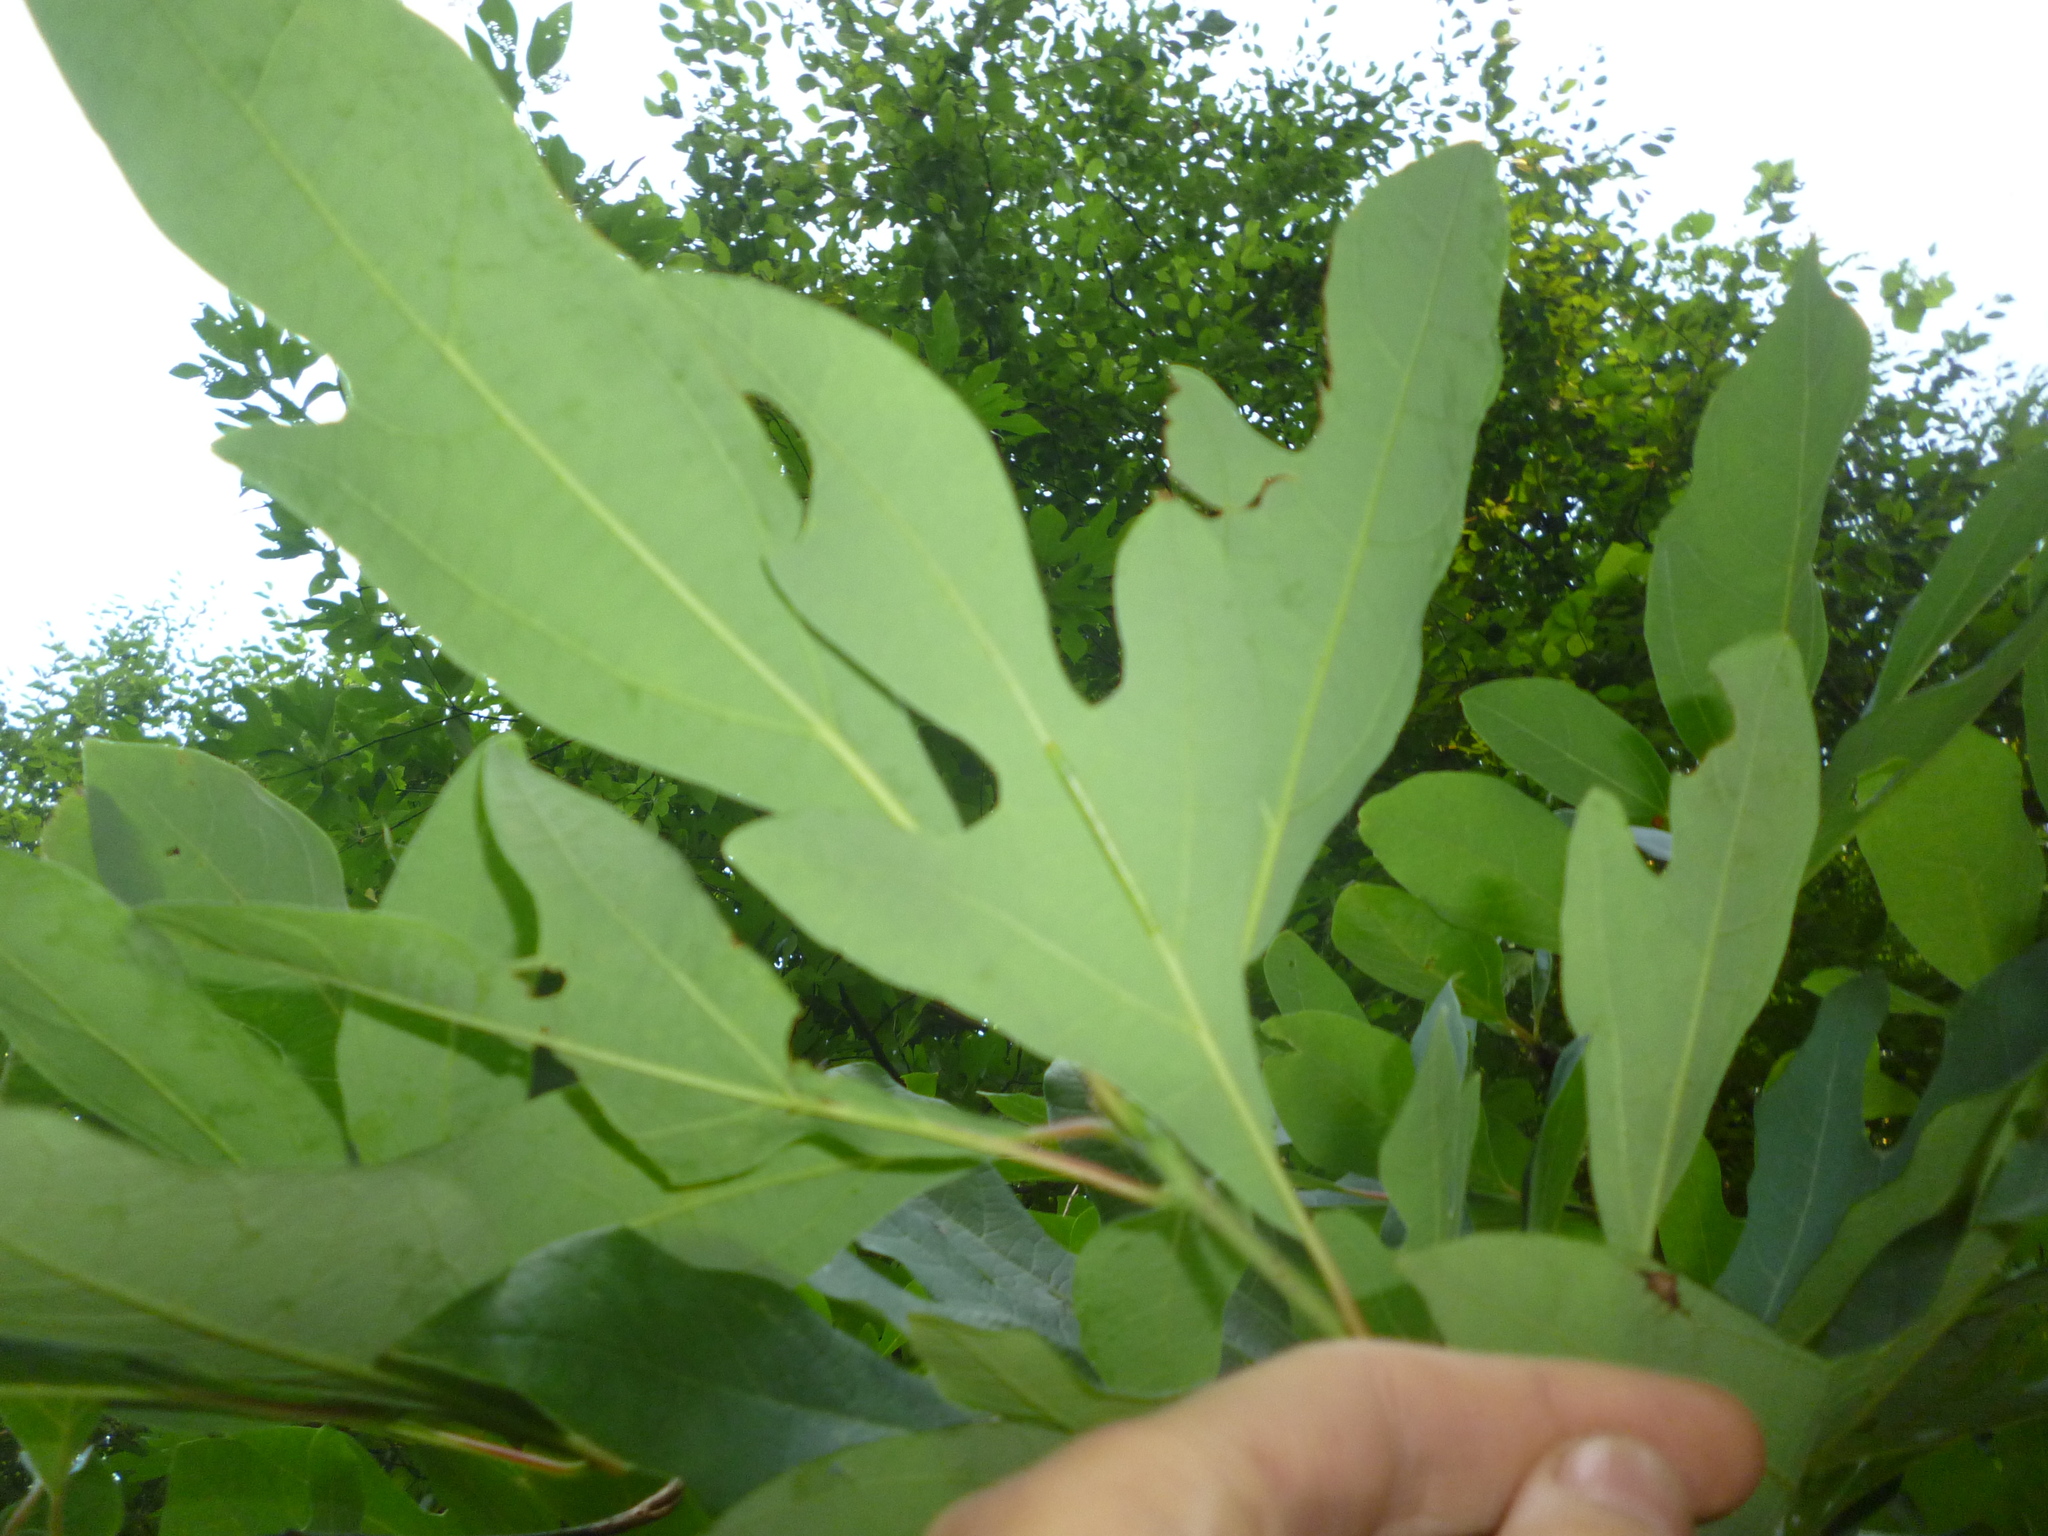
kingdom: Plantae
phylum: Tracheophyta
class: Magnoliopsida
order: Laurales
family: Lauraceae
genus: Sassafras
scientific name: Sassafras albidum
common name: Sassafras
